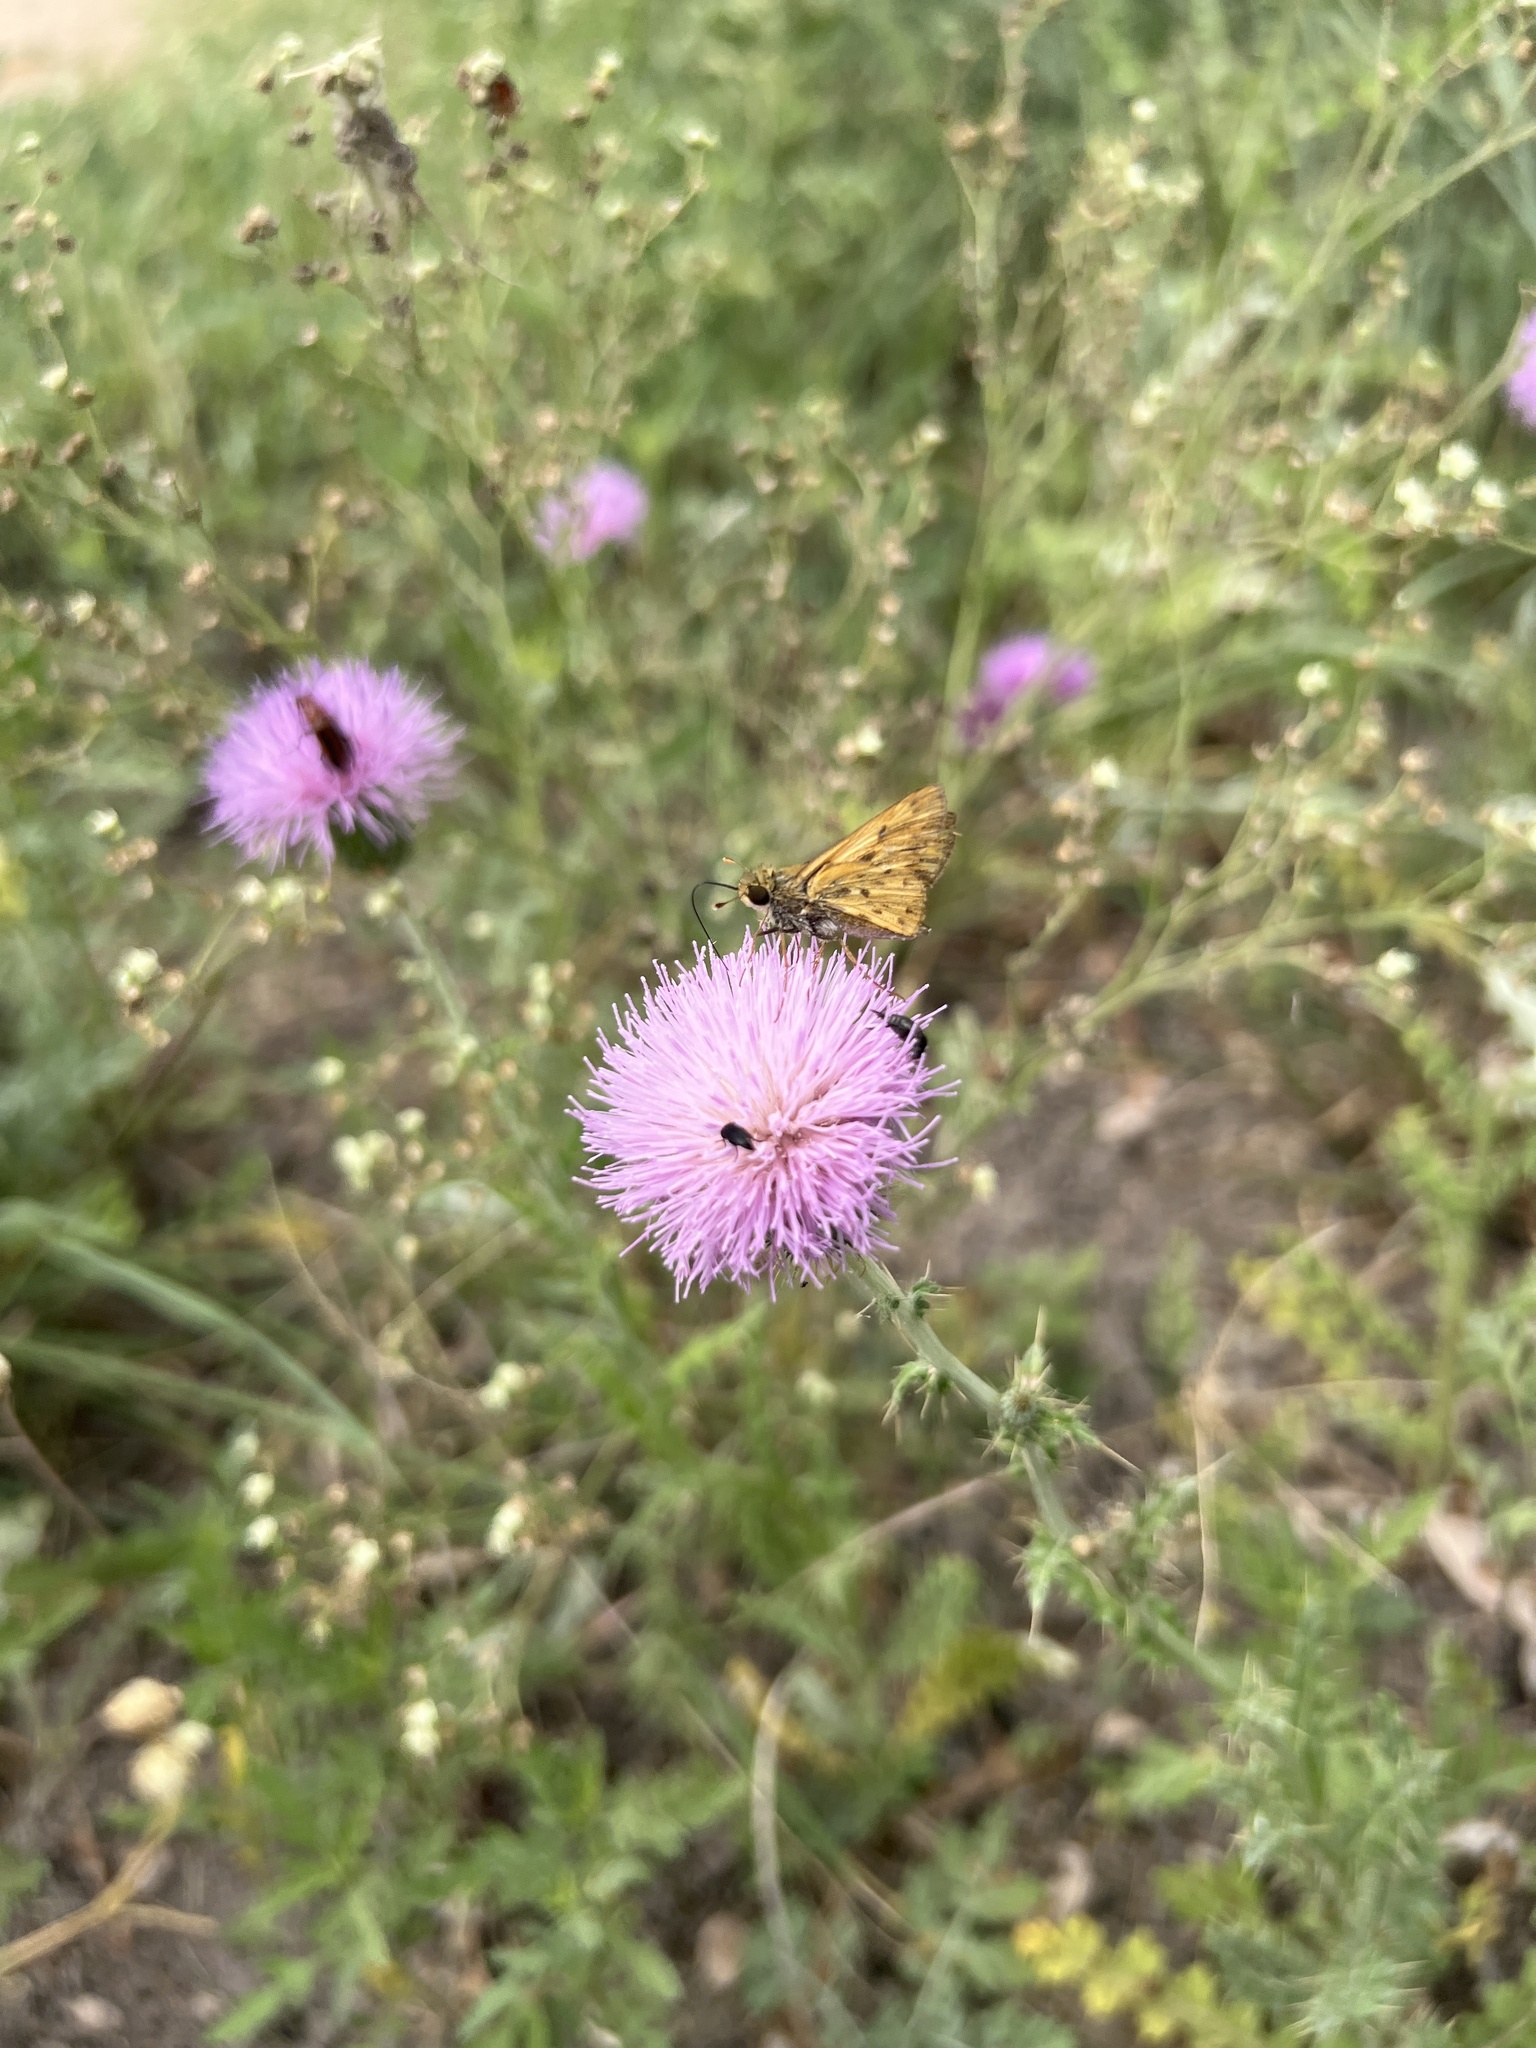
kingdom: Animalia
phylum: Arthropoda
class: Insecta
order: Lepidoptera
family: Hesperiidae
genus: Hylephila
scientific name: Hylephila phyleus
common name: Fiery skipper
